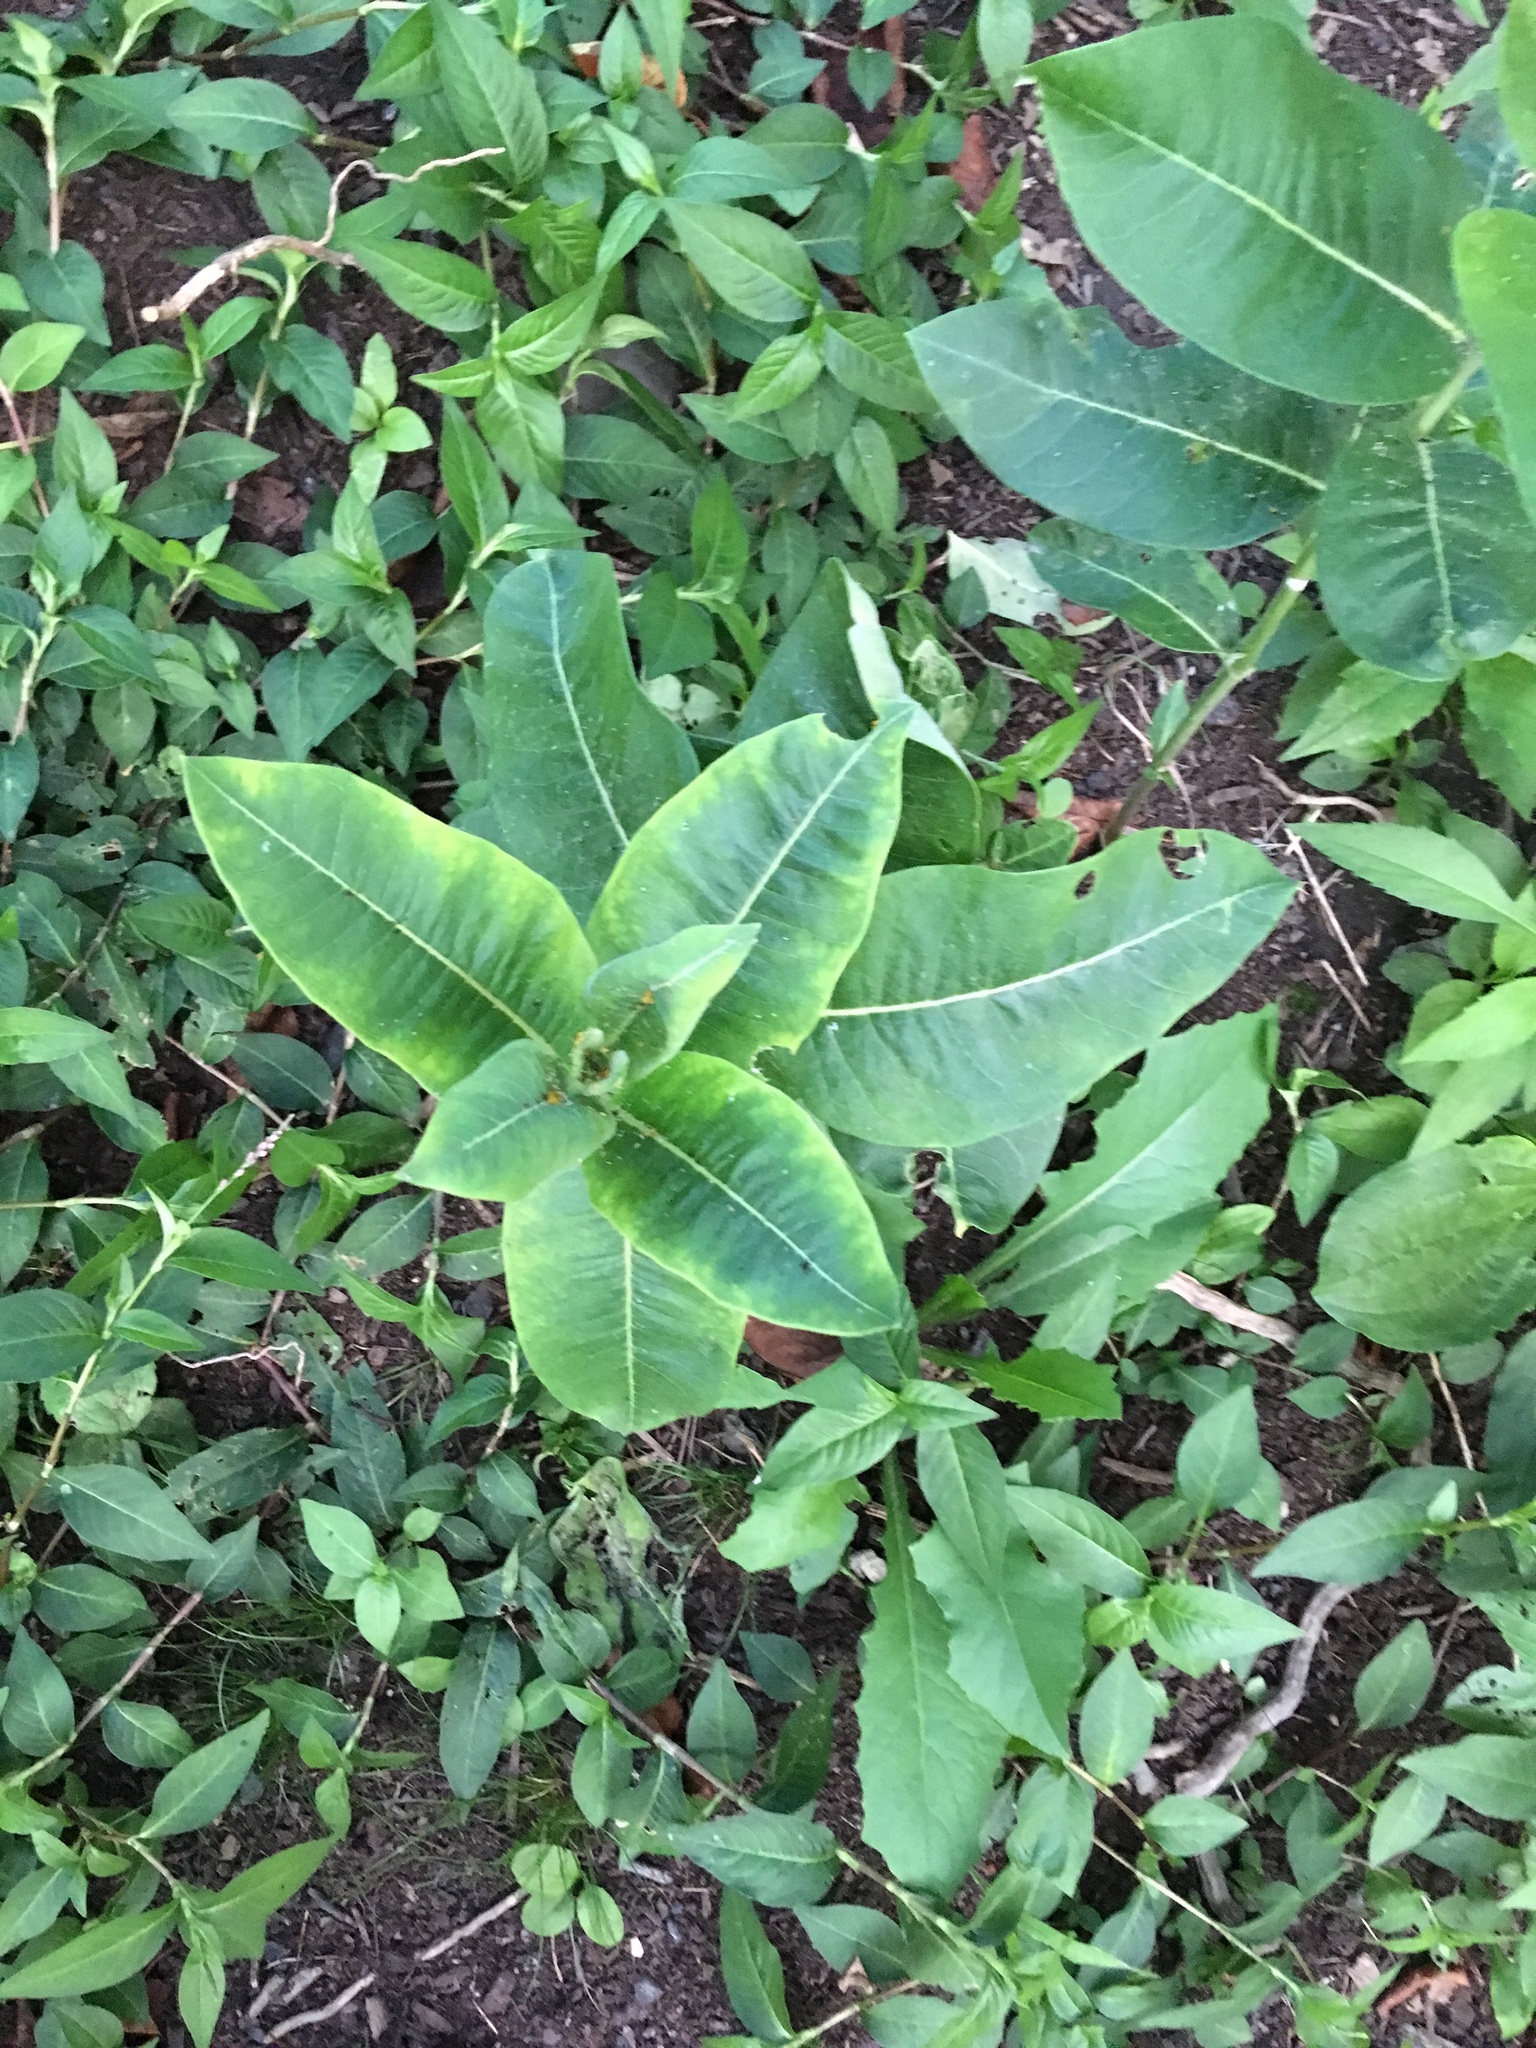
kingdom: Plantae
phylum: Tracheophyta
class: Magnoliopsida
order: Gentianales
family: Apocynaceae
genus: Asclepias
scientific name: Asclepias syriaca
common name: Common milkweed
